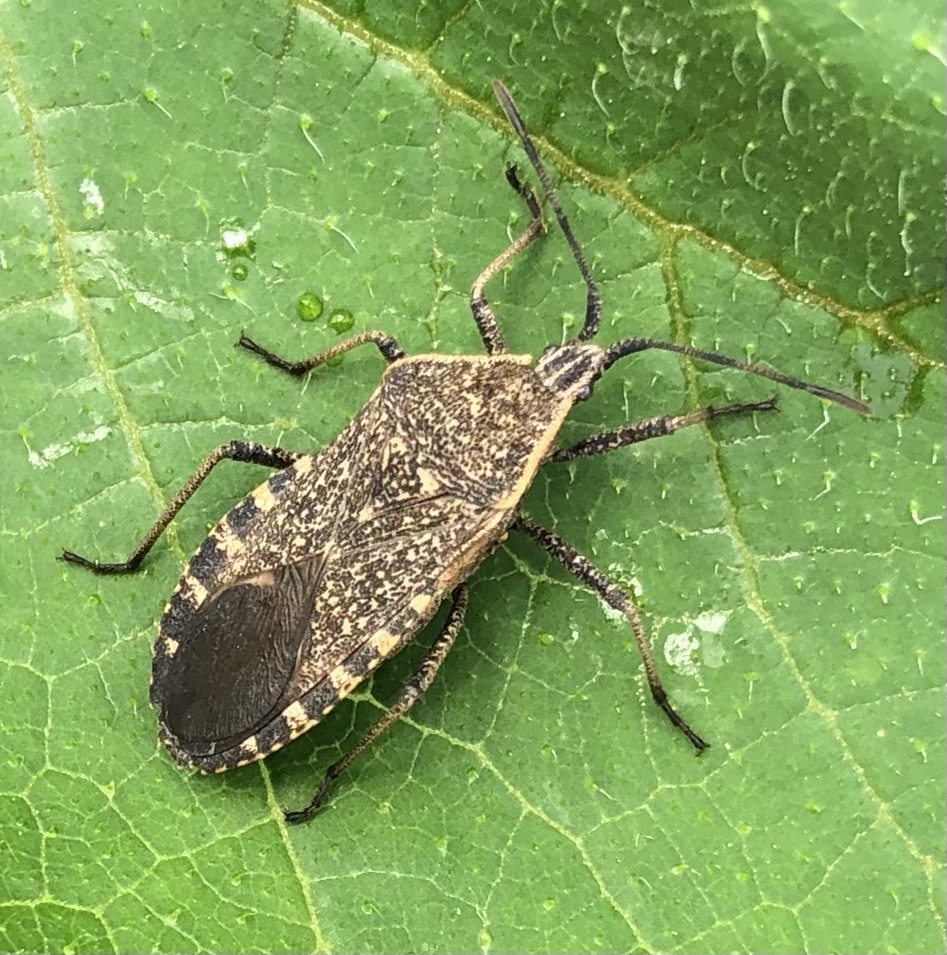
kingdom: Animalia
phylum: Arthropoda
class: Insecta
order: Hemiptera
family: Coreidae
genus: Anasa
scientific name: Anasa tristis
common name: Squash bug
